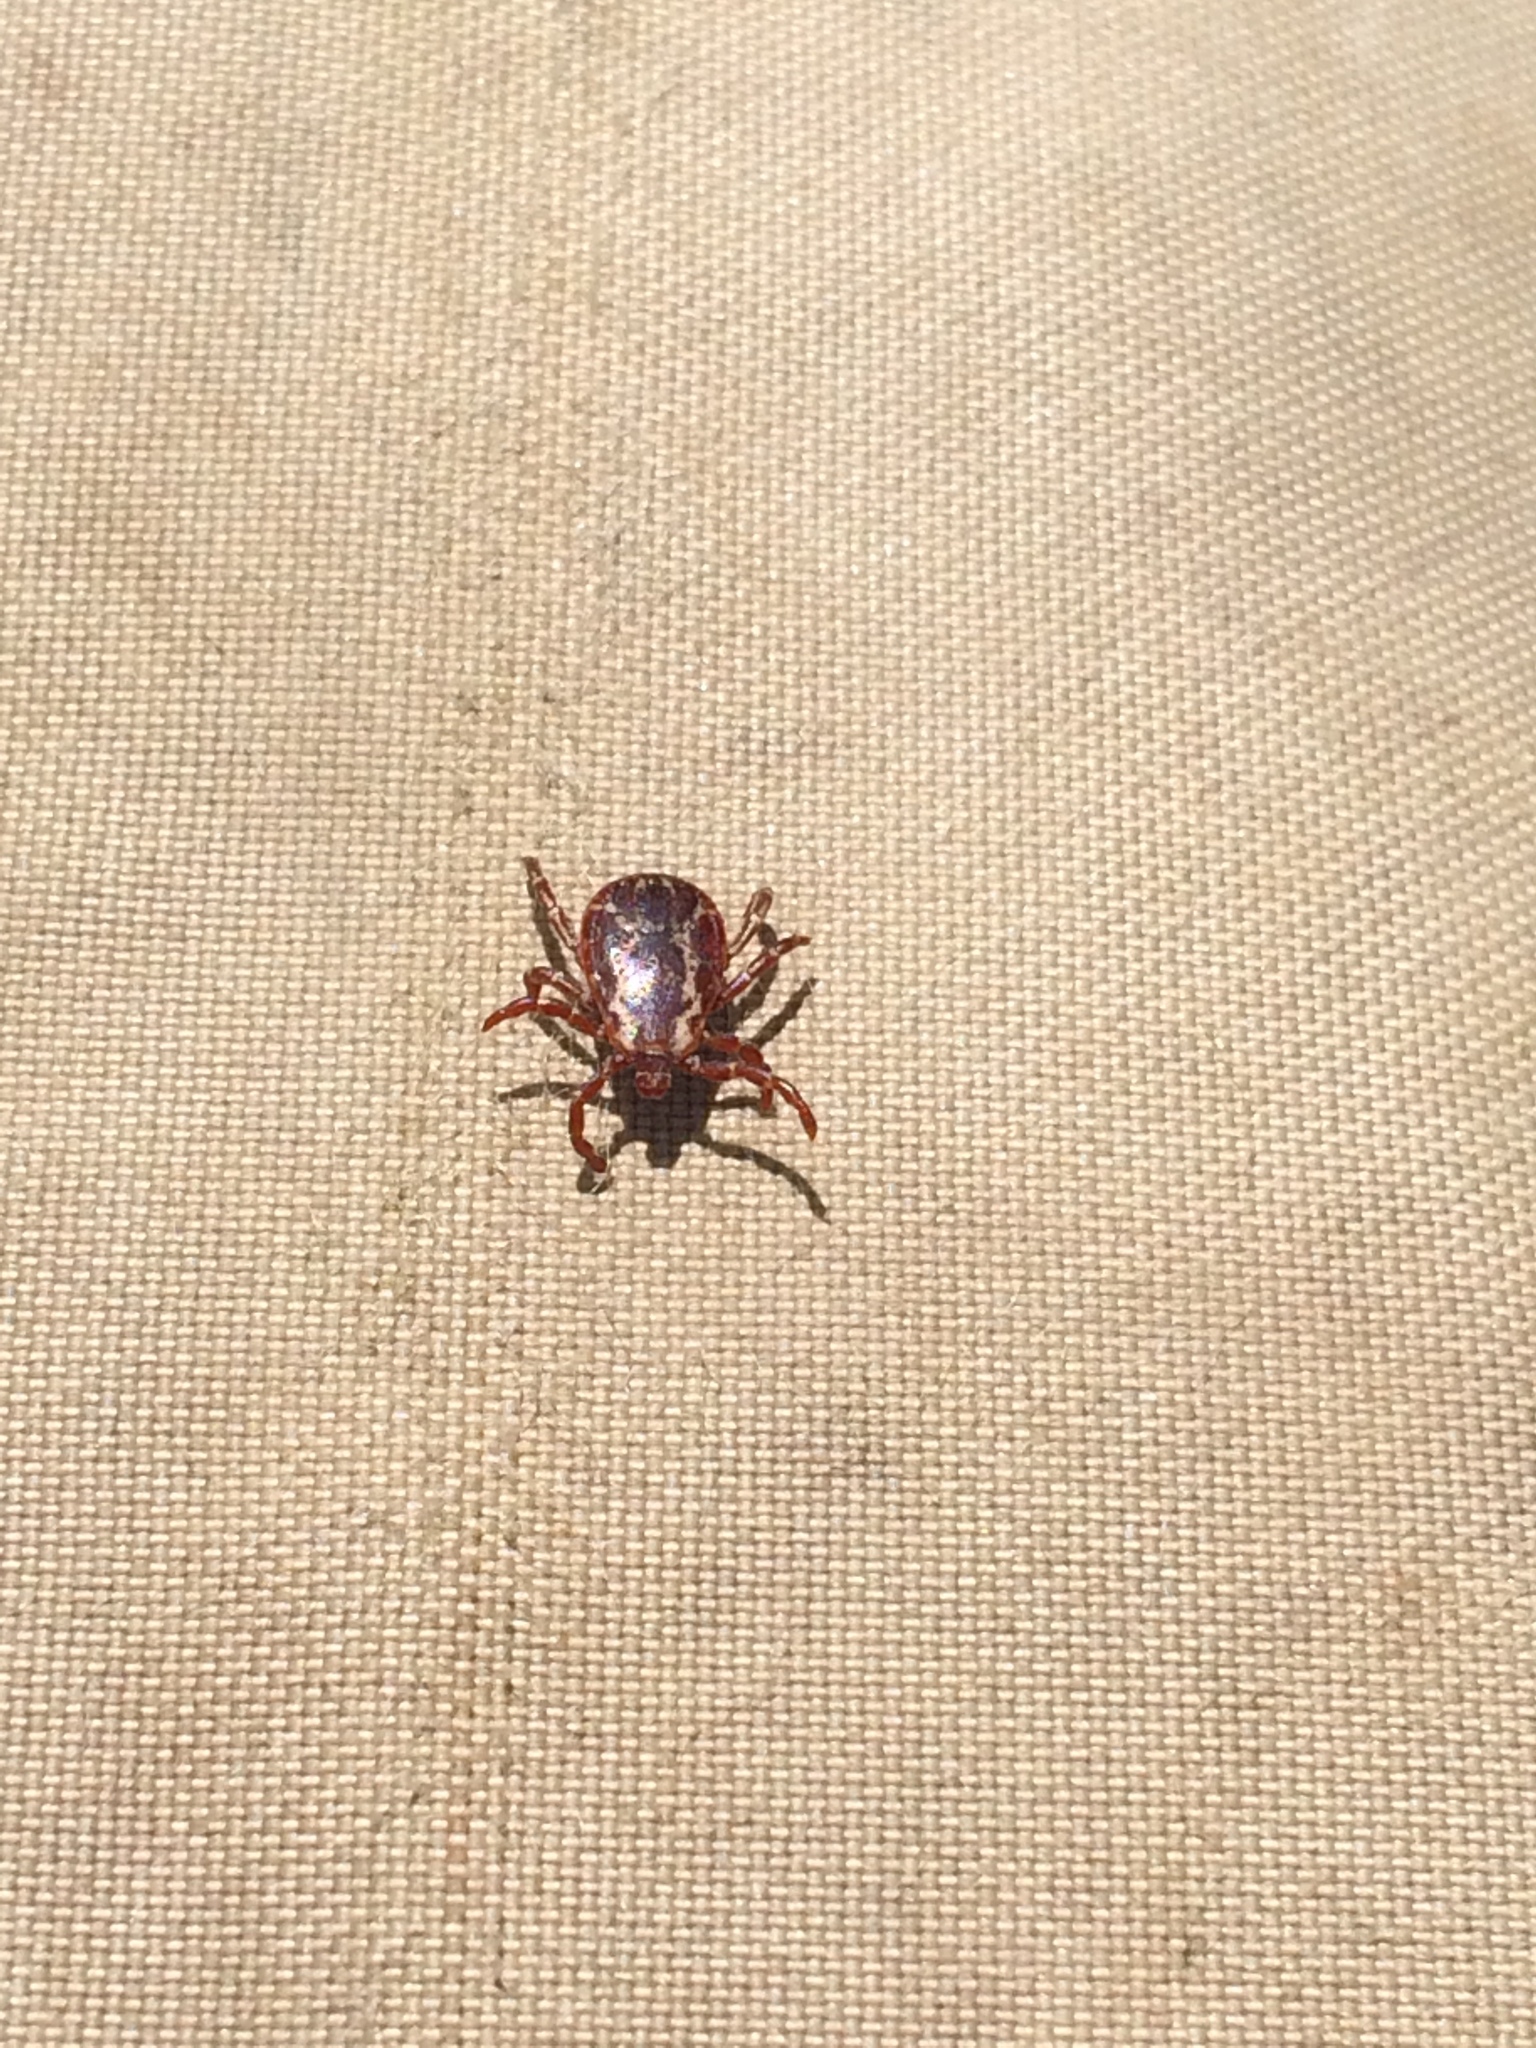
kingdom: Animalia
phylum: Arthropoda
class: Arachnida
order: Ixodida
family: Ixodidae
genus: Dermacentor
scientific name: Dermacentor variabilis
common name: American dog tick
